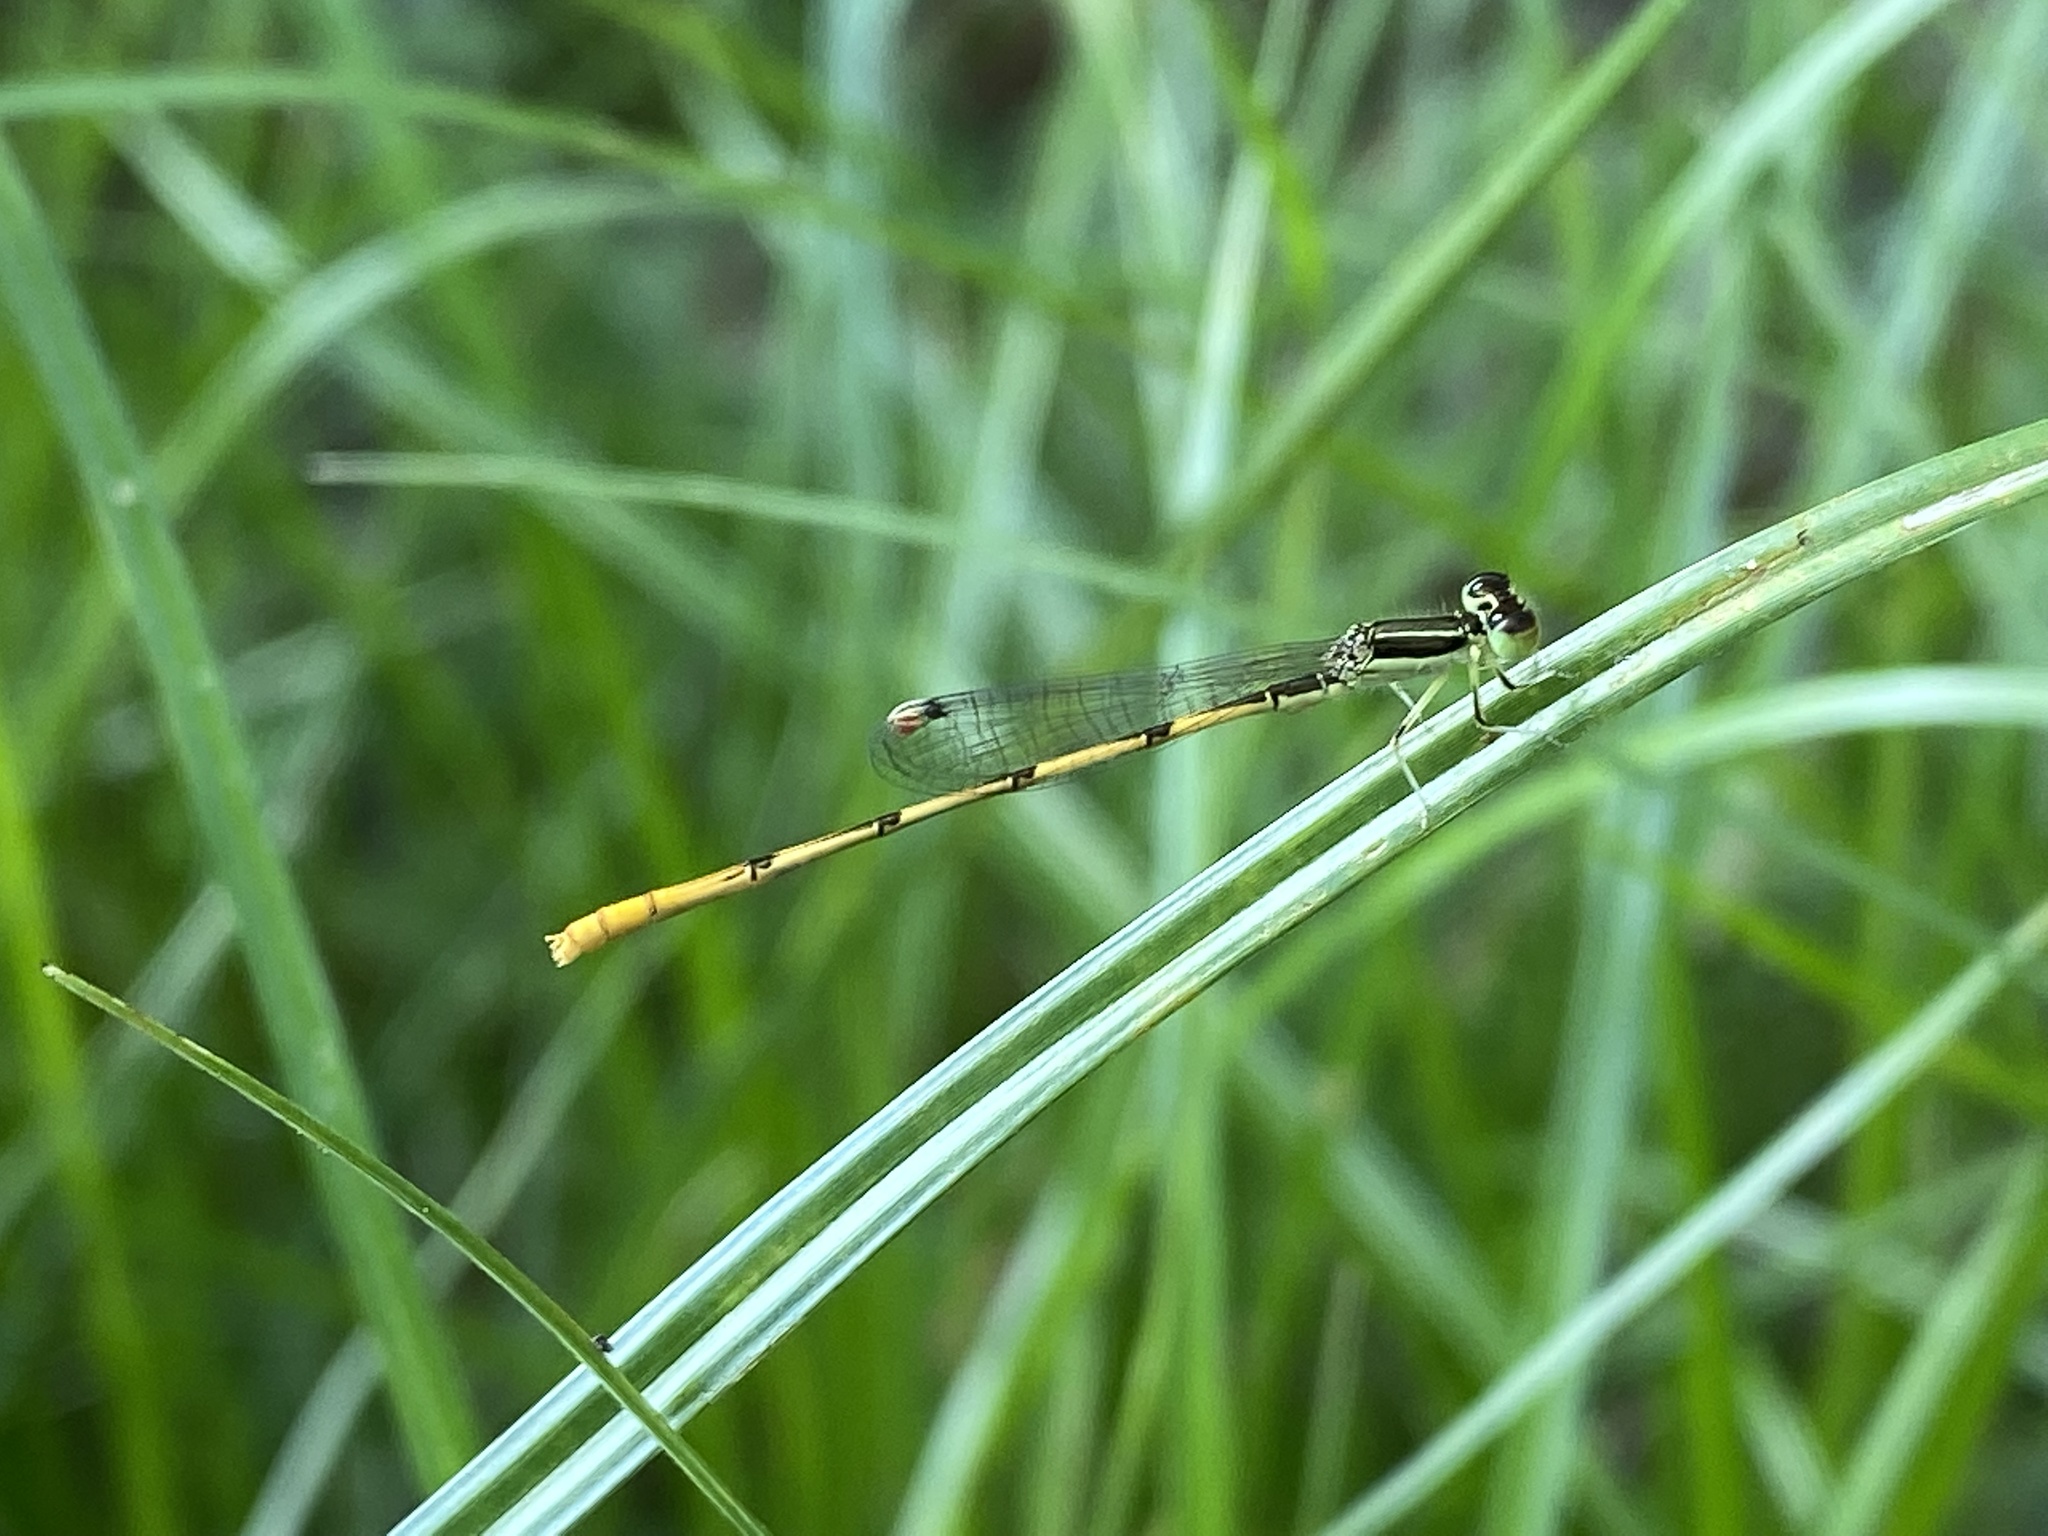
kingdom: Animalia
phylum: Arthropoda
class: Insecta
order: Odonata
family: Coenagrionidae
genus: Ischnura
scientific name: Ischnura hastata
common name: Citrine forktail
